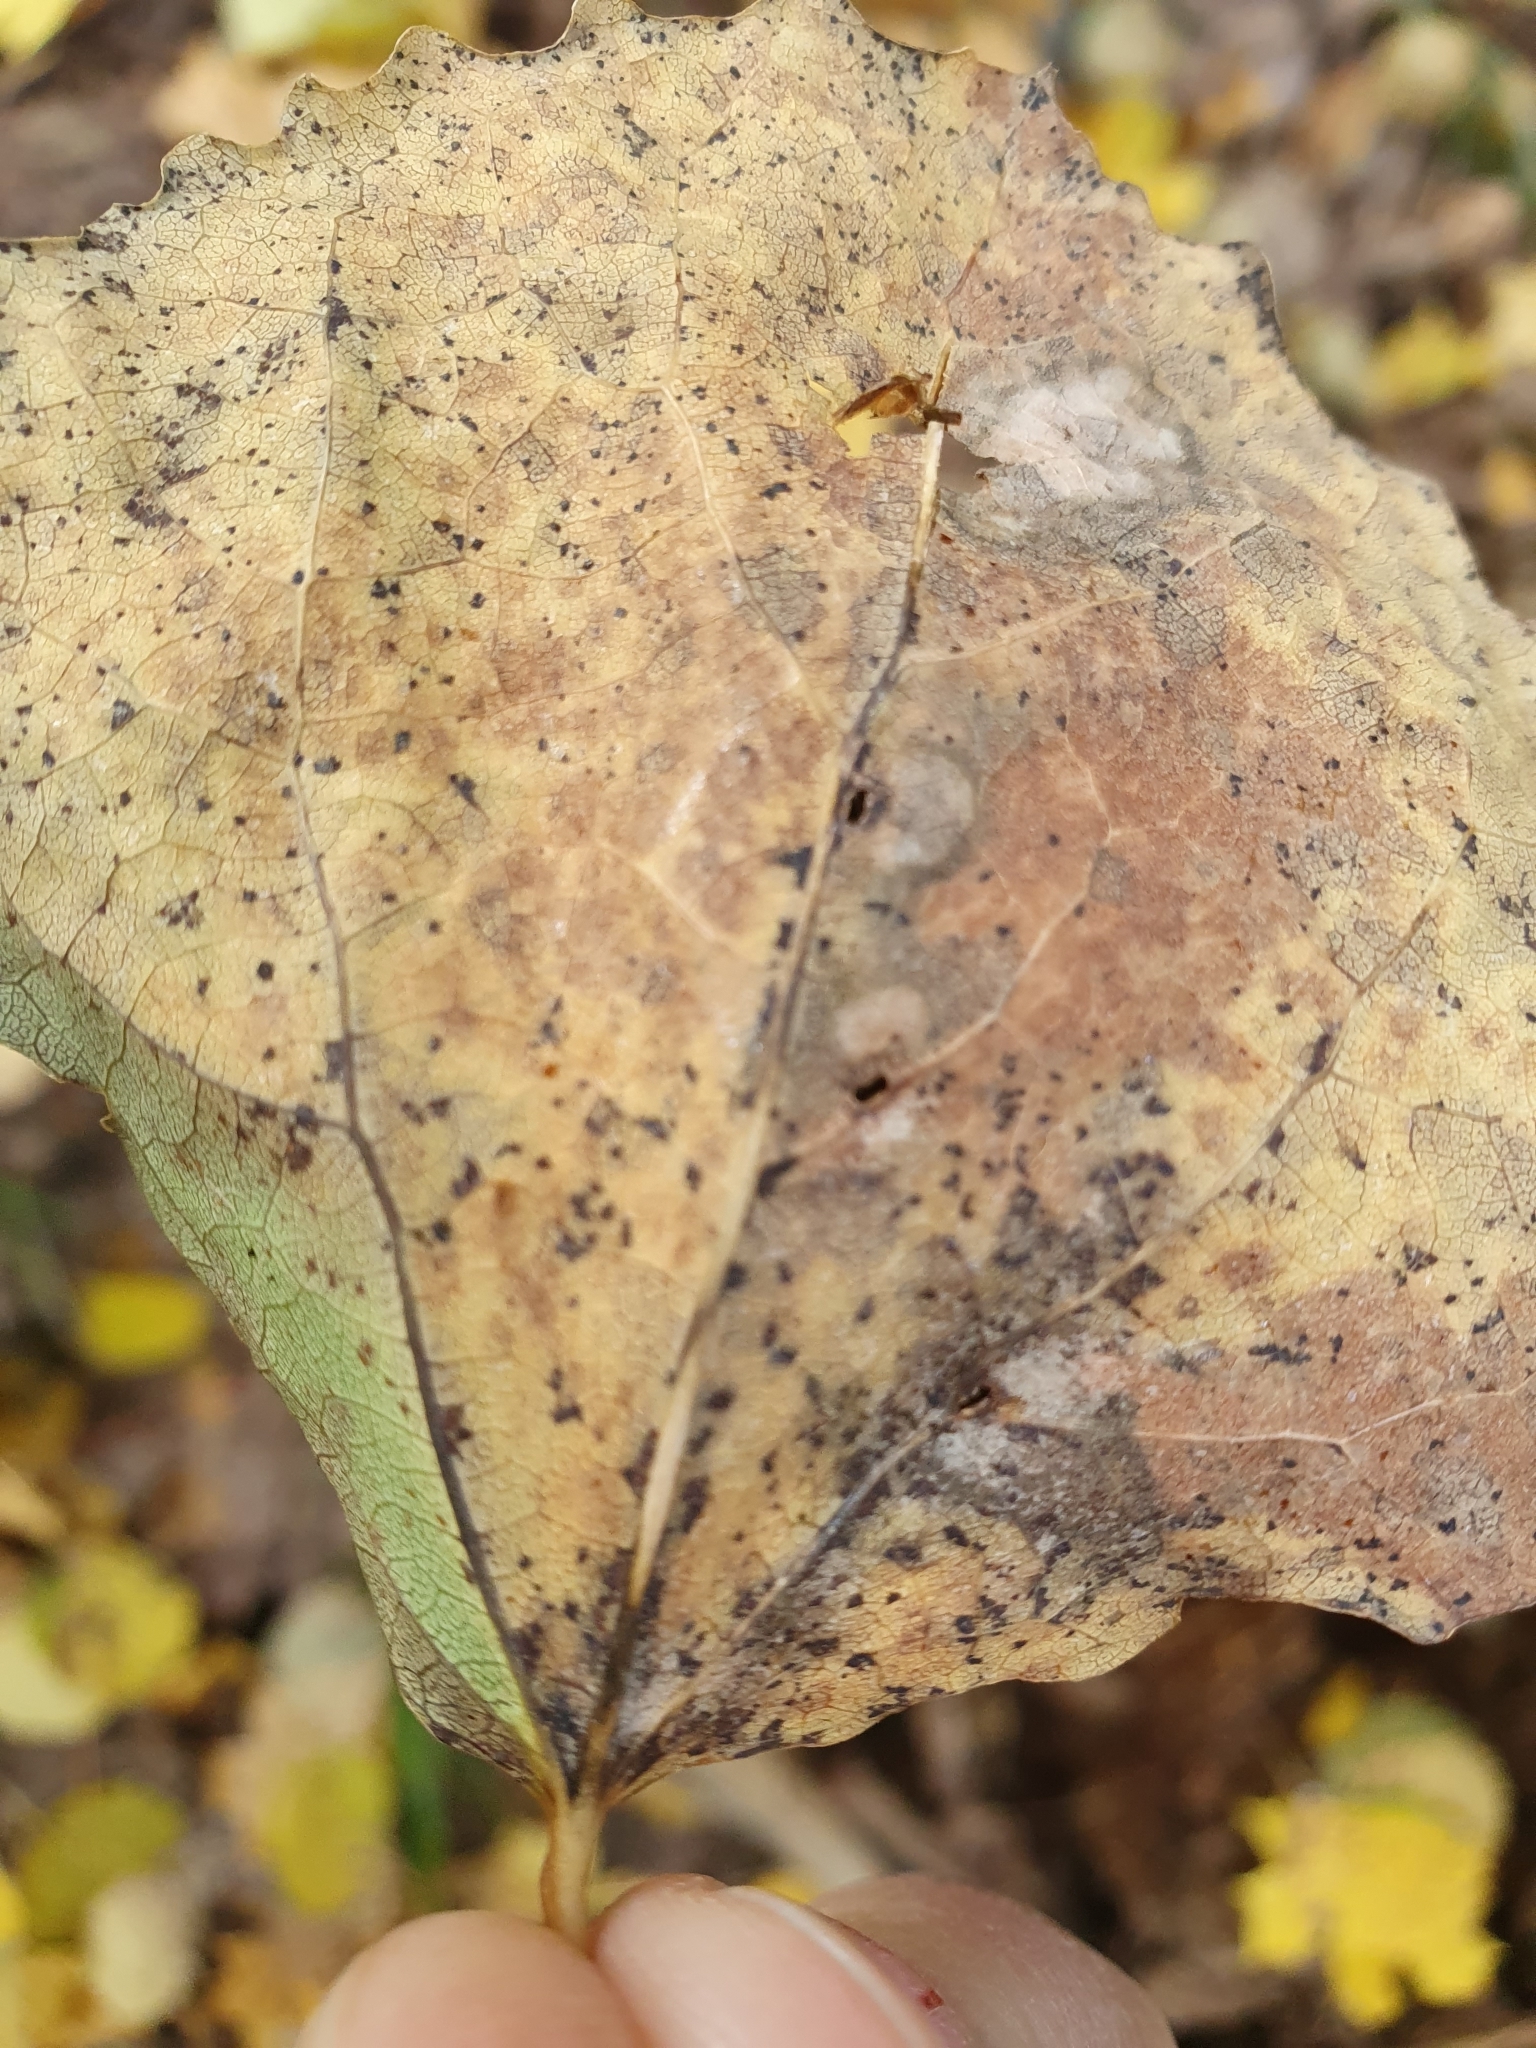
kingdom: Animalia
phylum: Arthropoda
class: Insecta
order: Diptera
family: Cecidomyiidae
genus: Harmandiola
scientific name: Harmandiola tremulae
